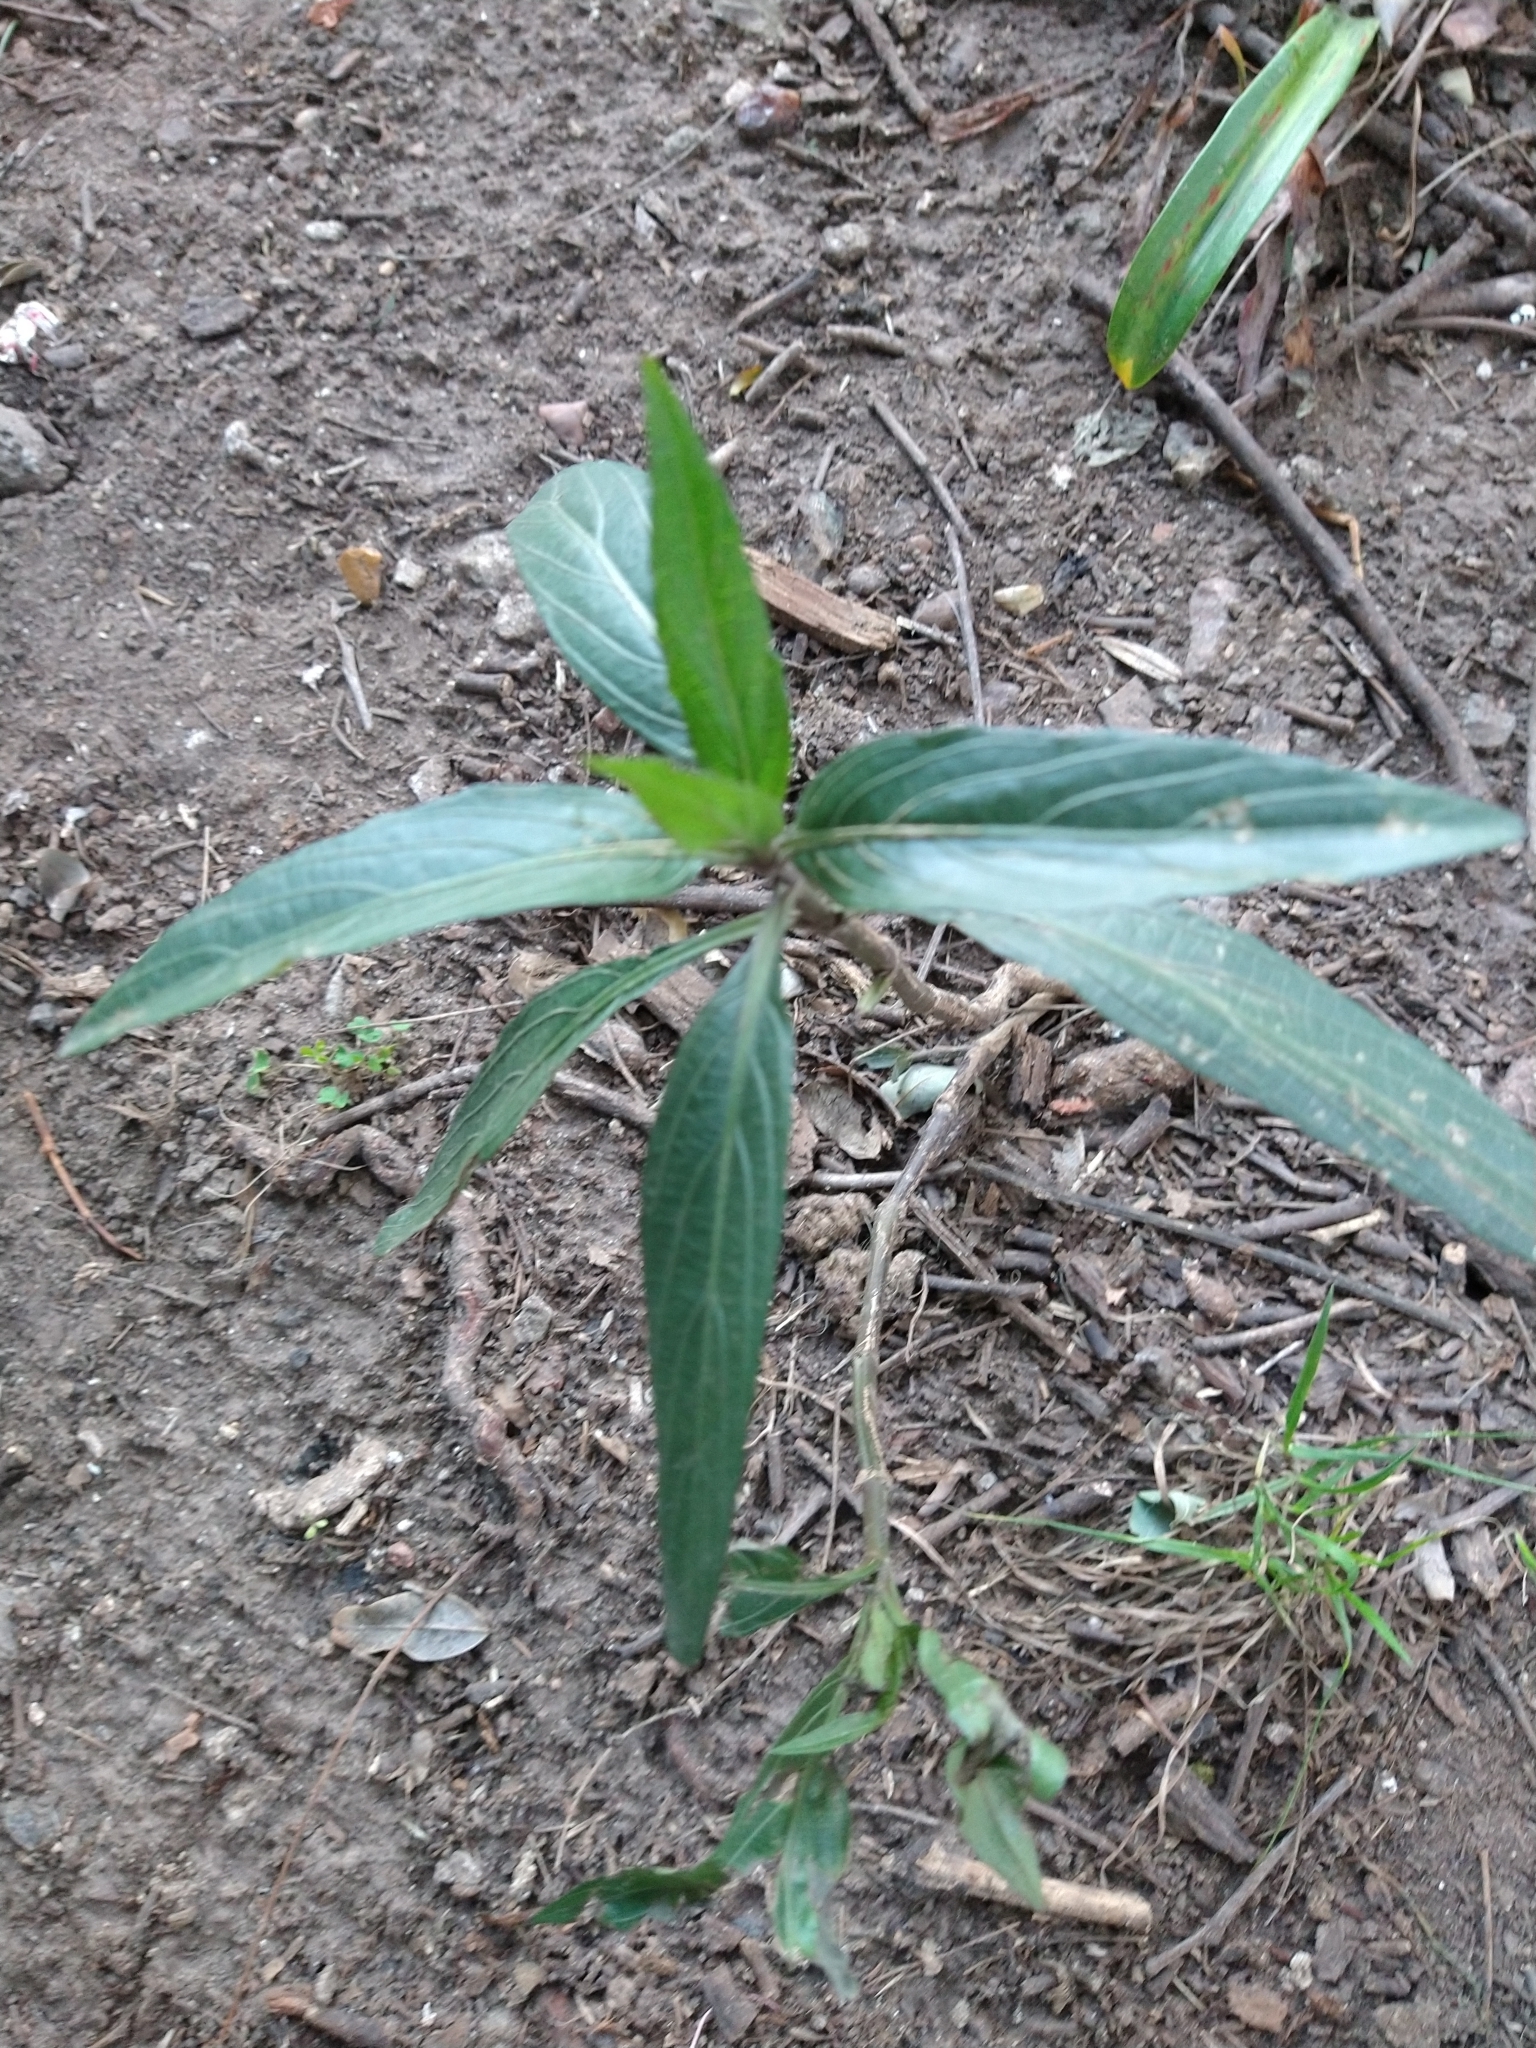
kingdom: Plantae
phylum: Tracheophyta
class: Magnoliopsida
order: Lamiales
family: Acanthaceae
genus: Ruellia
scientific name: Ruellia simplex
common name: Softseed wild petunia
